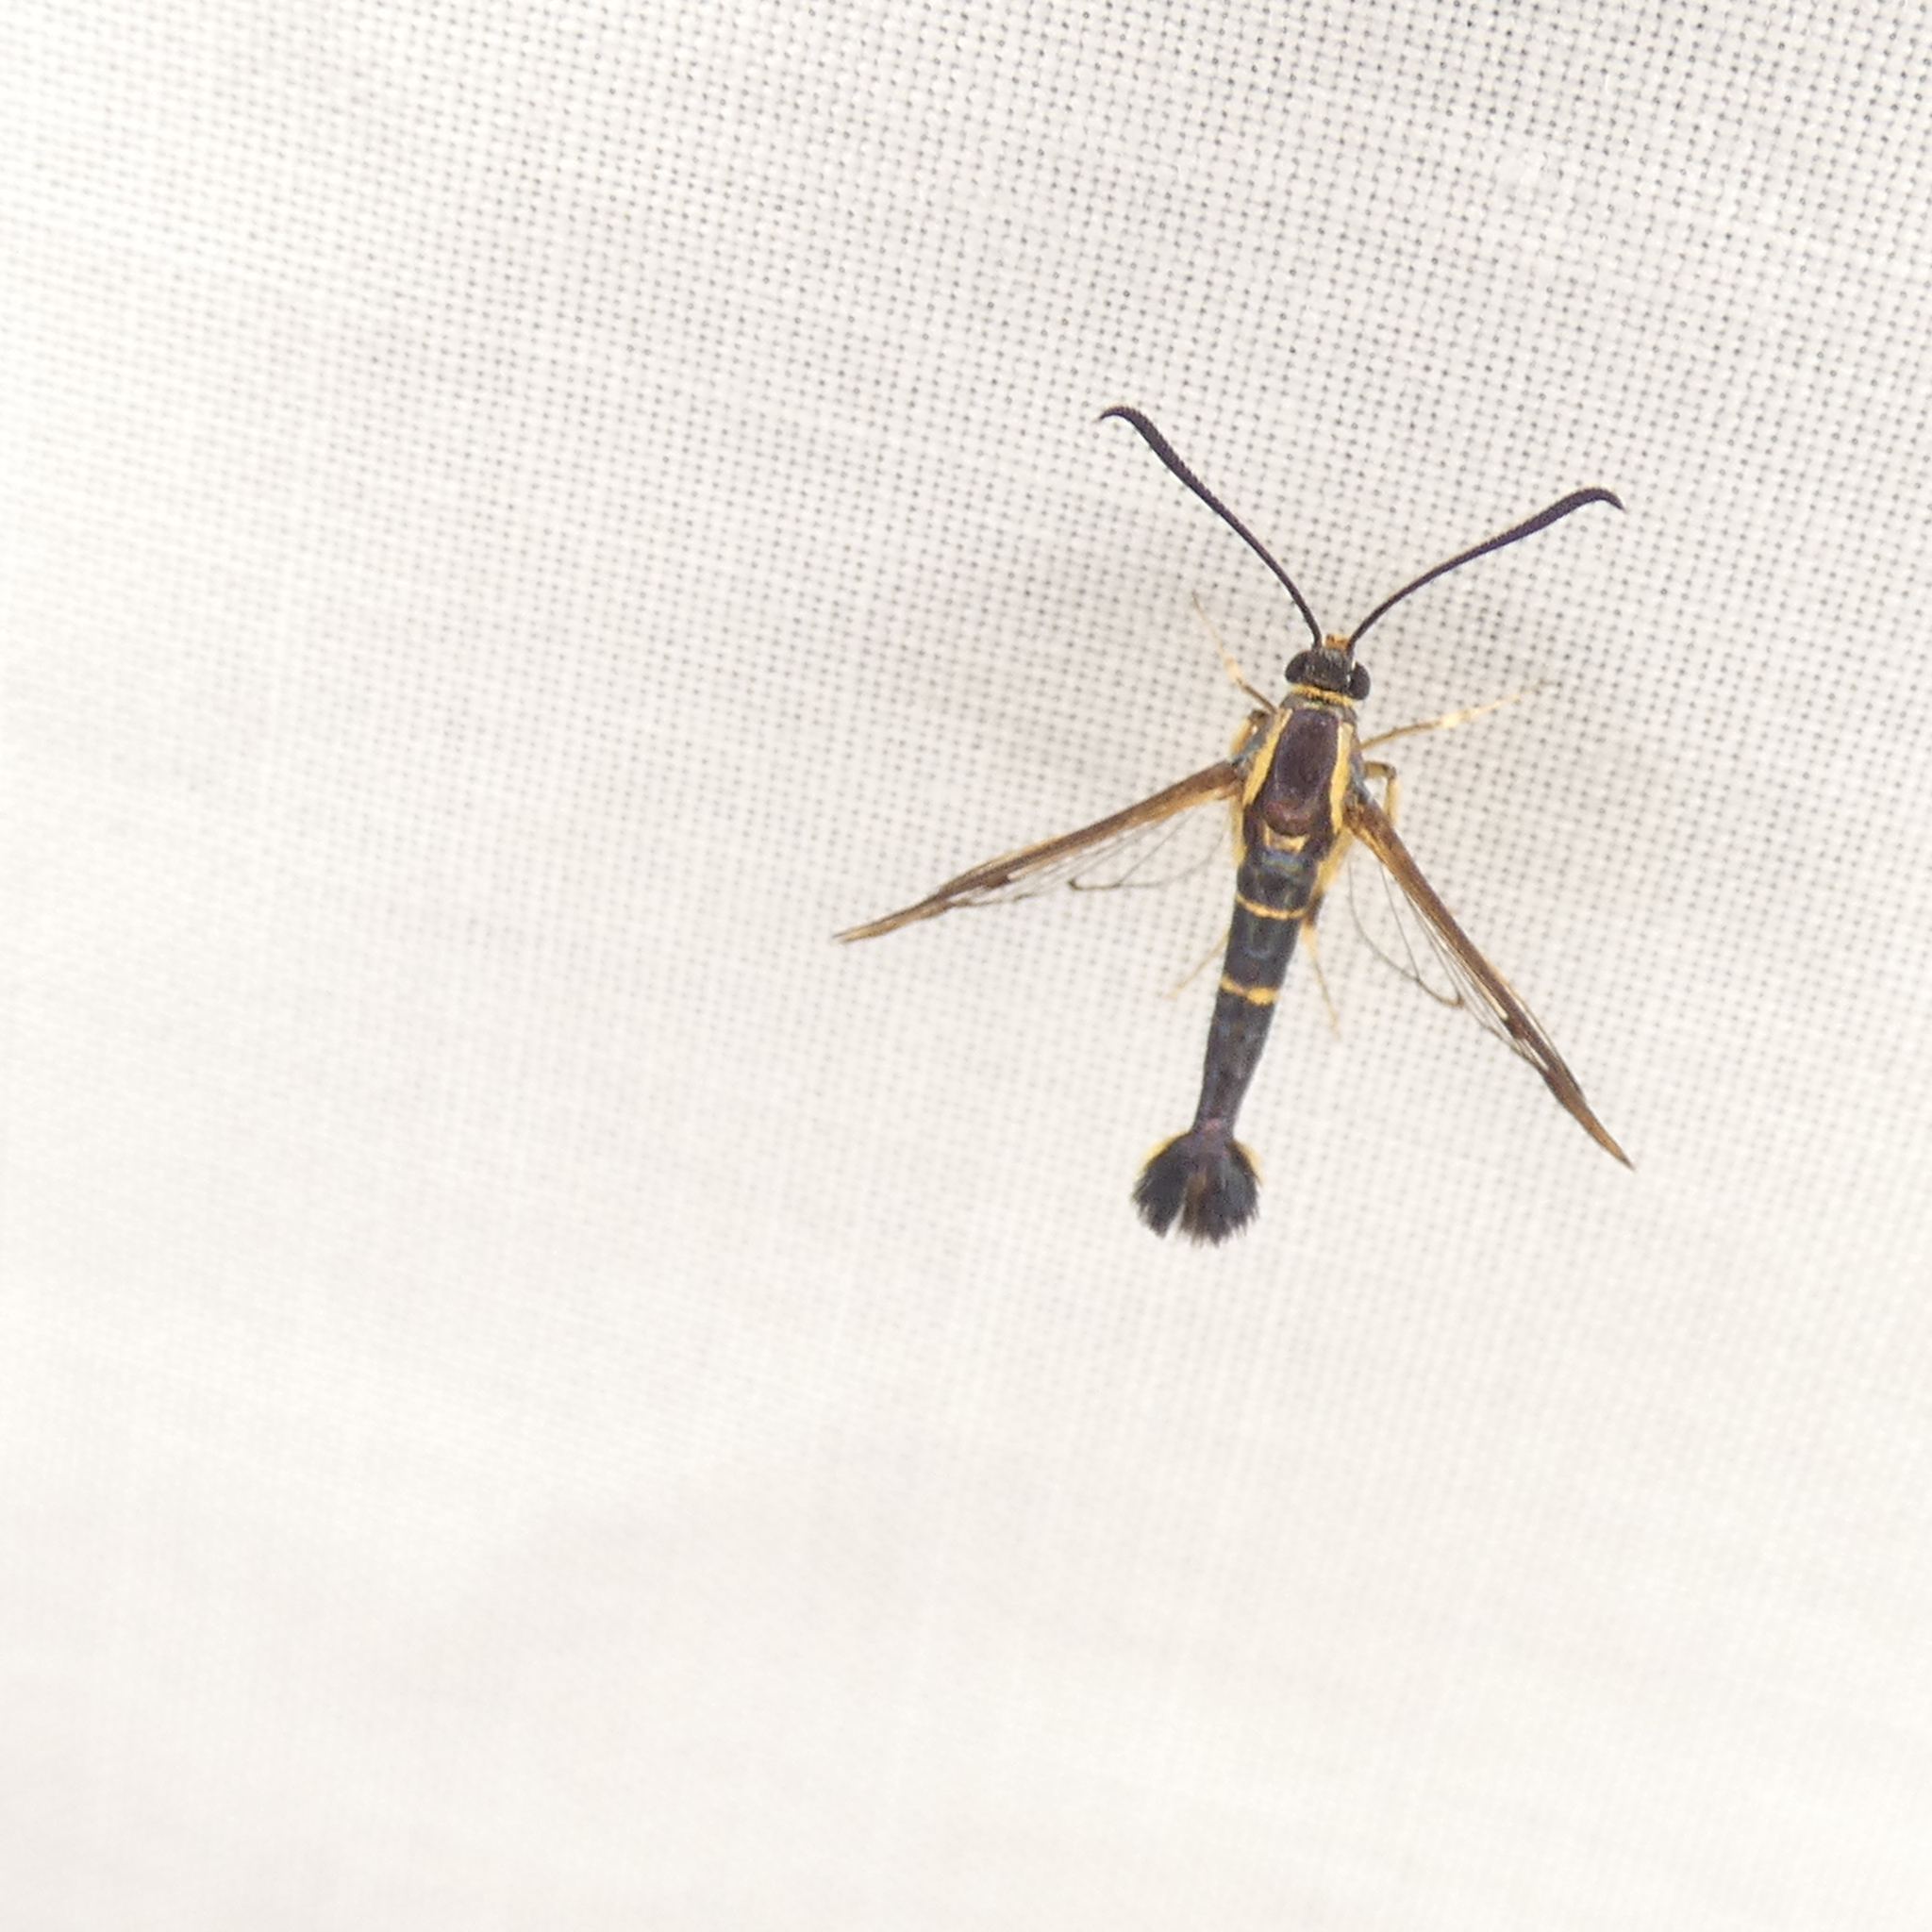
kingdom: Animalia
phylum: Arthropoda
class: Insecta
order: Lepidoptera
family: Sesiidae
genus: Synanthedon
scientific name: Synanthedon scitula
